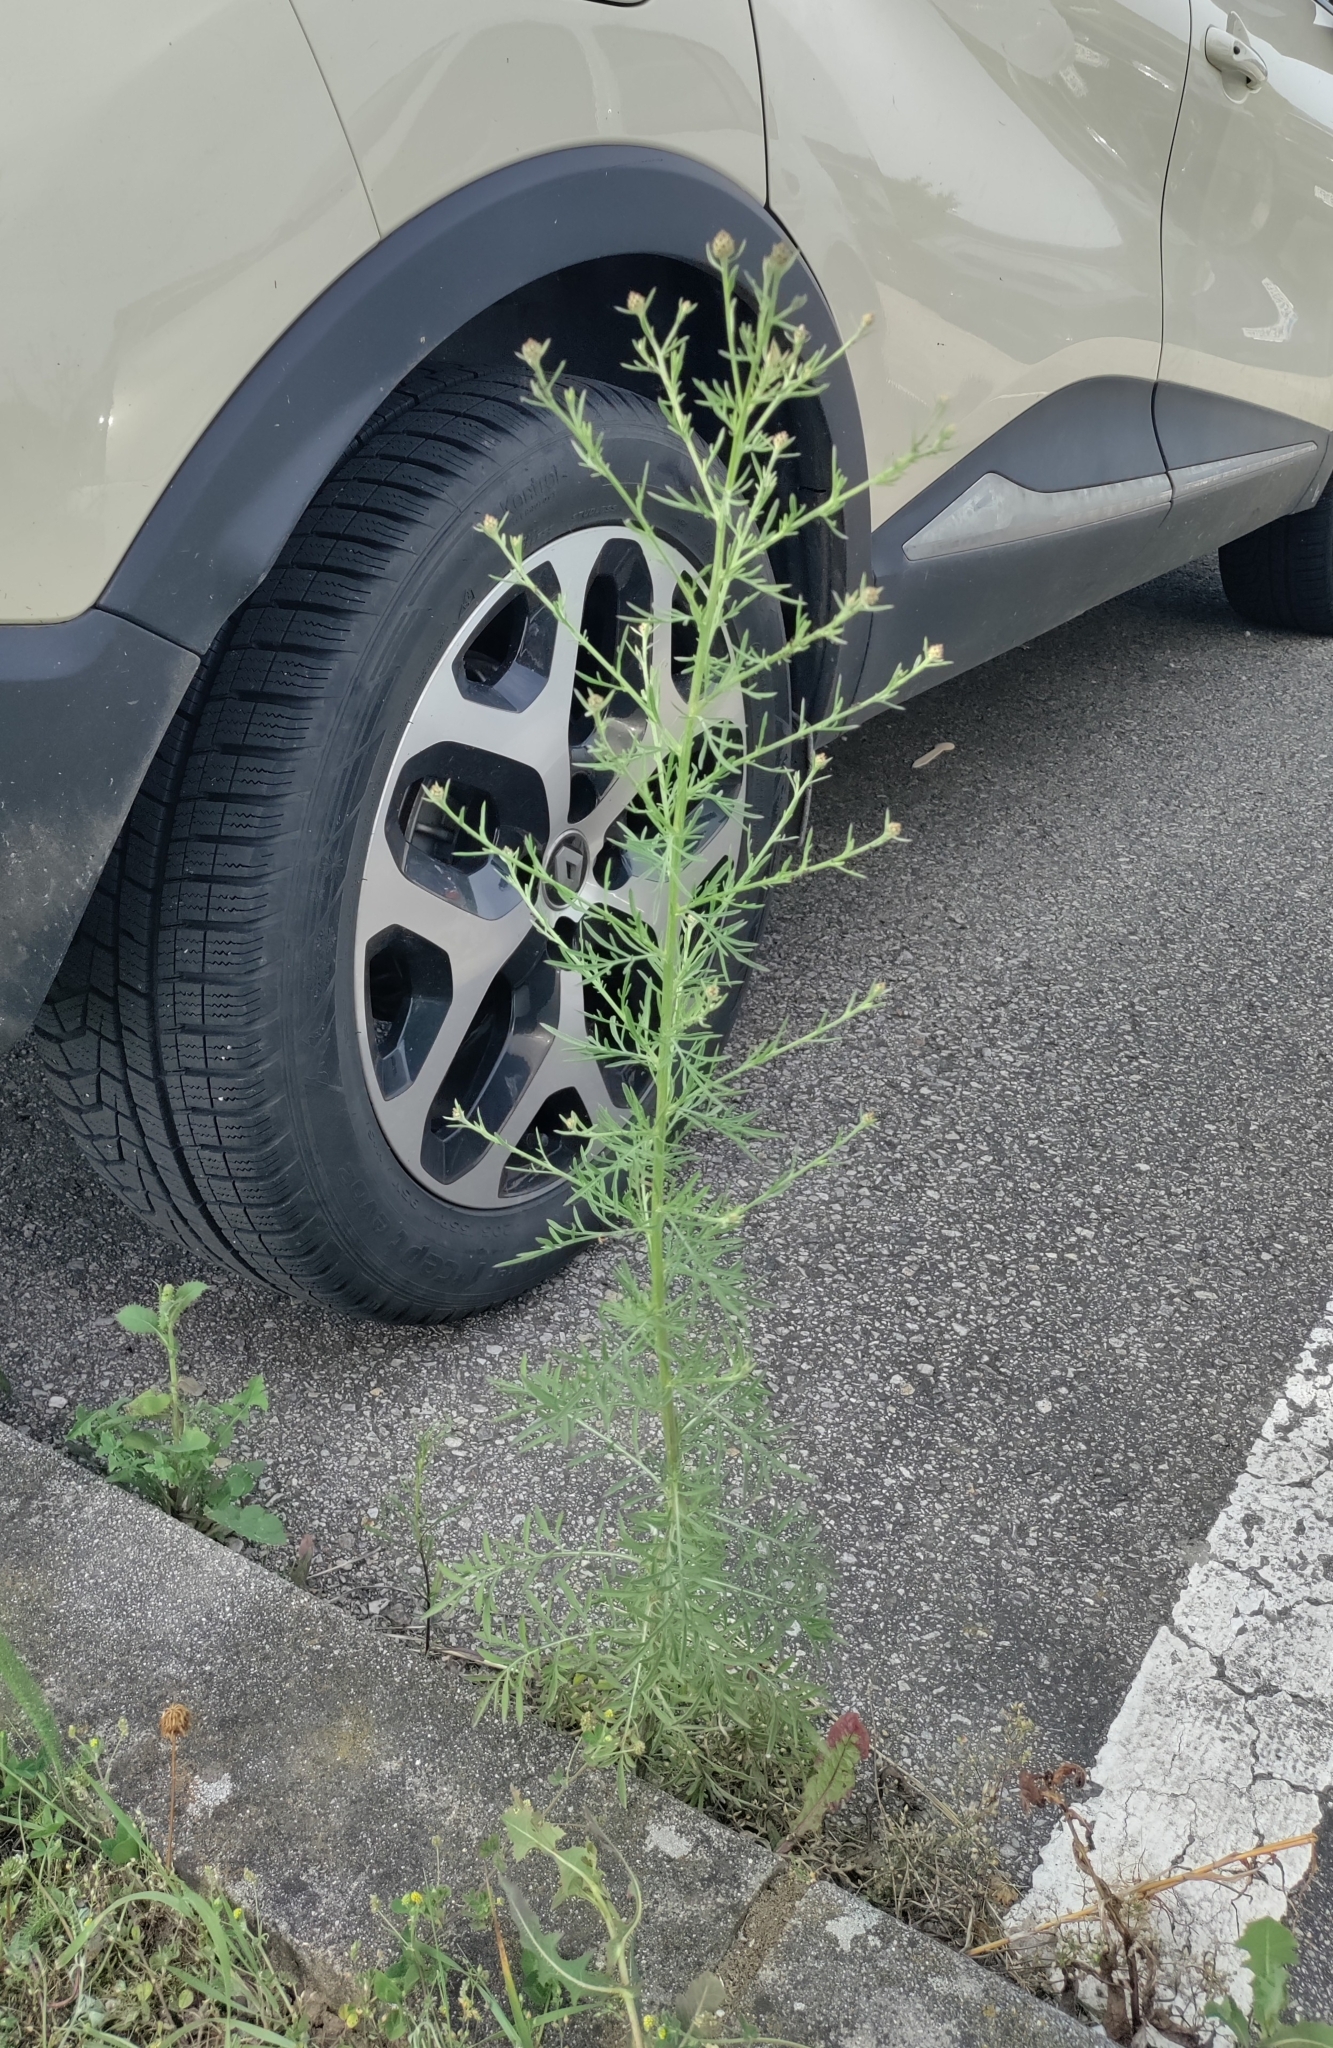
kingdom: Plantae
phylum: Tracheophyta
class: Magnoliopsida
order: Asterales
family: Asteraceae
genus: Centaurea
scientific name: Centaurea stoebe
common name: Spotted knapweed
